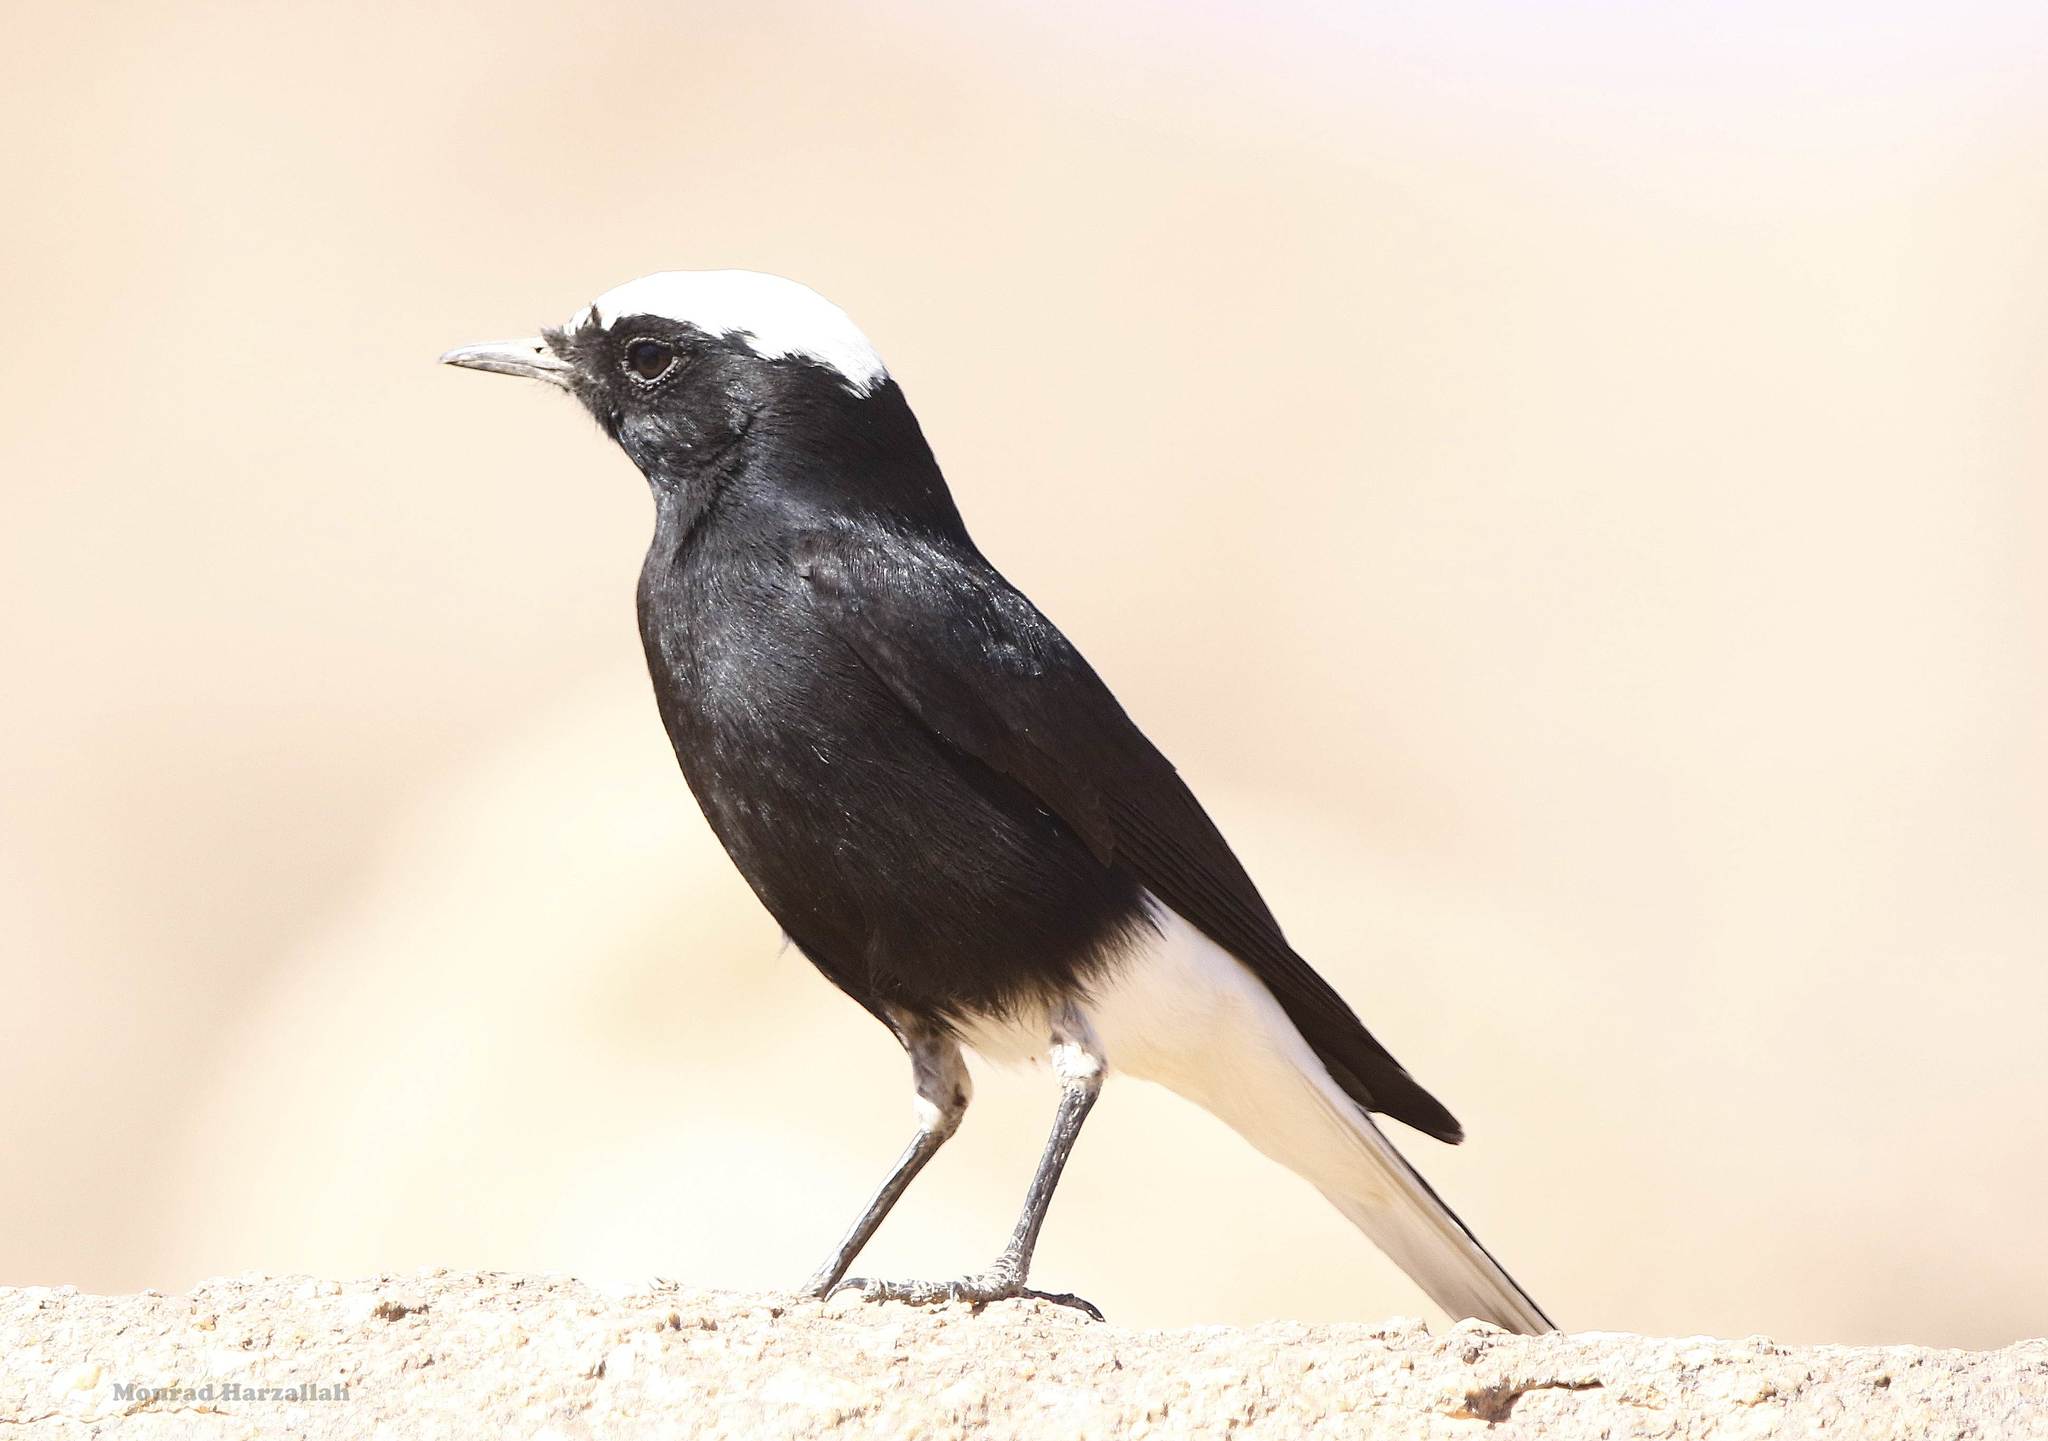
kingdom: Animalia
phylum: Chordata
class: Aves
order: Passeriformes
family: Muscicapidae
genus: Oenanthe
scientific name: Oenanthe leucopyga
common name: White-crowned wheatear
